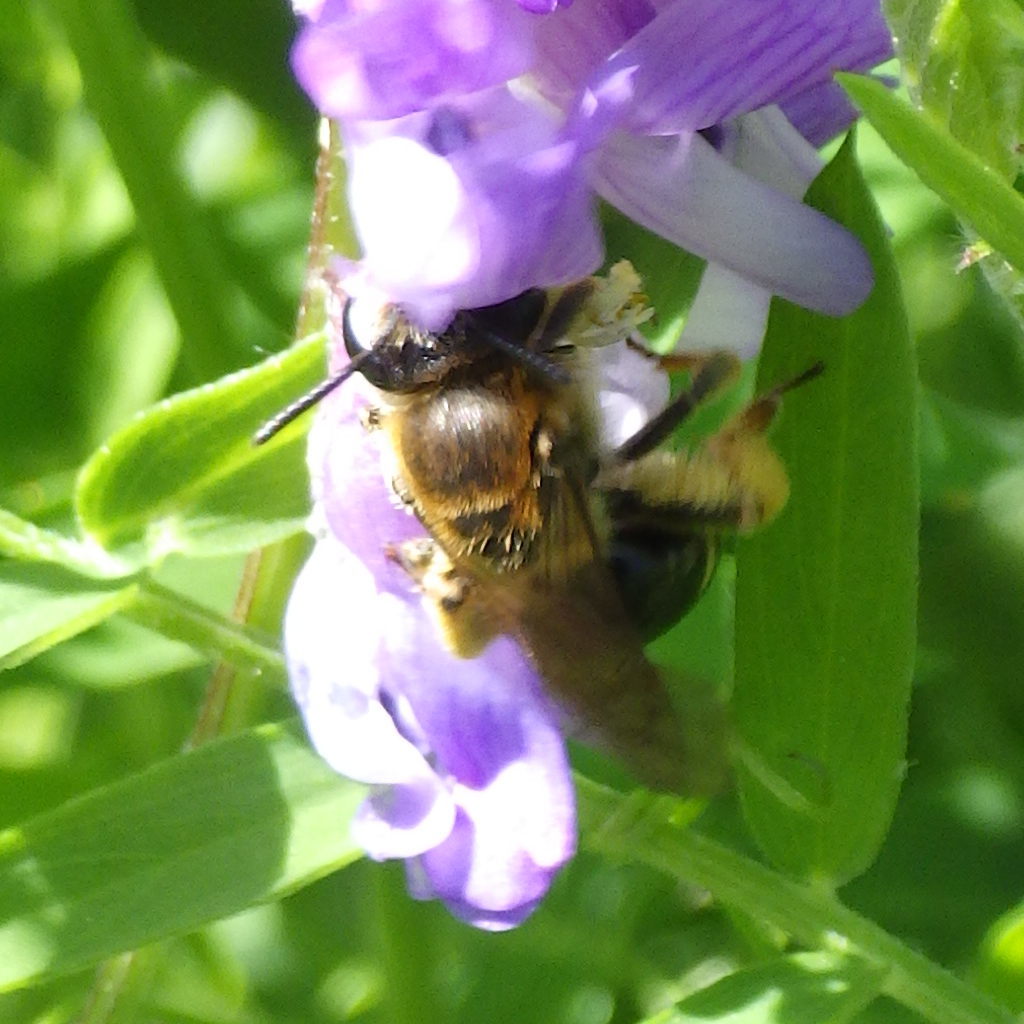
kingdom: Animalia
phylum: Arthropoda
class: Insecta
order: Hymenoptera
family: Andrenidae
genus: Andrena
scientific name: Andrena wilkella
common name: Wilke's mining bee
